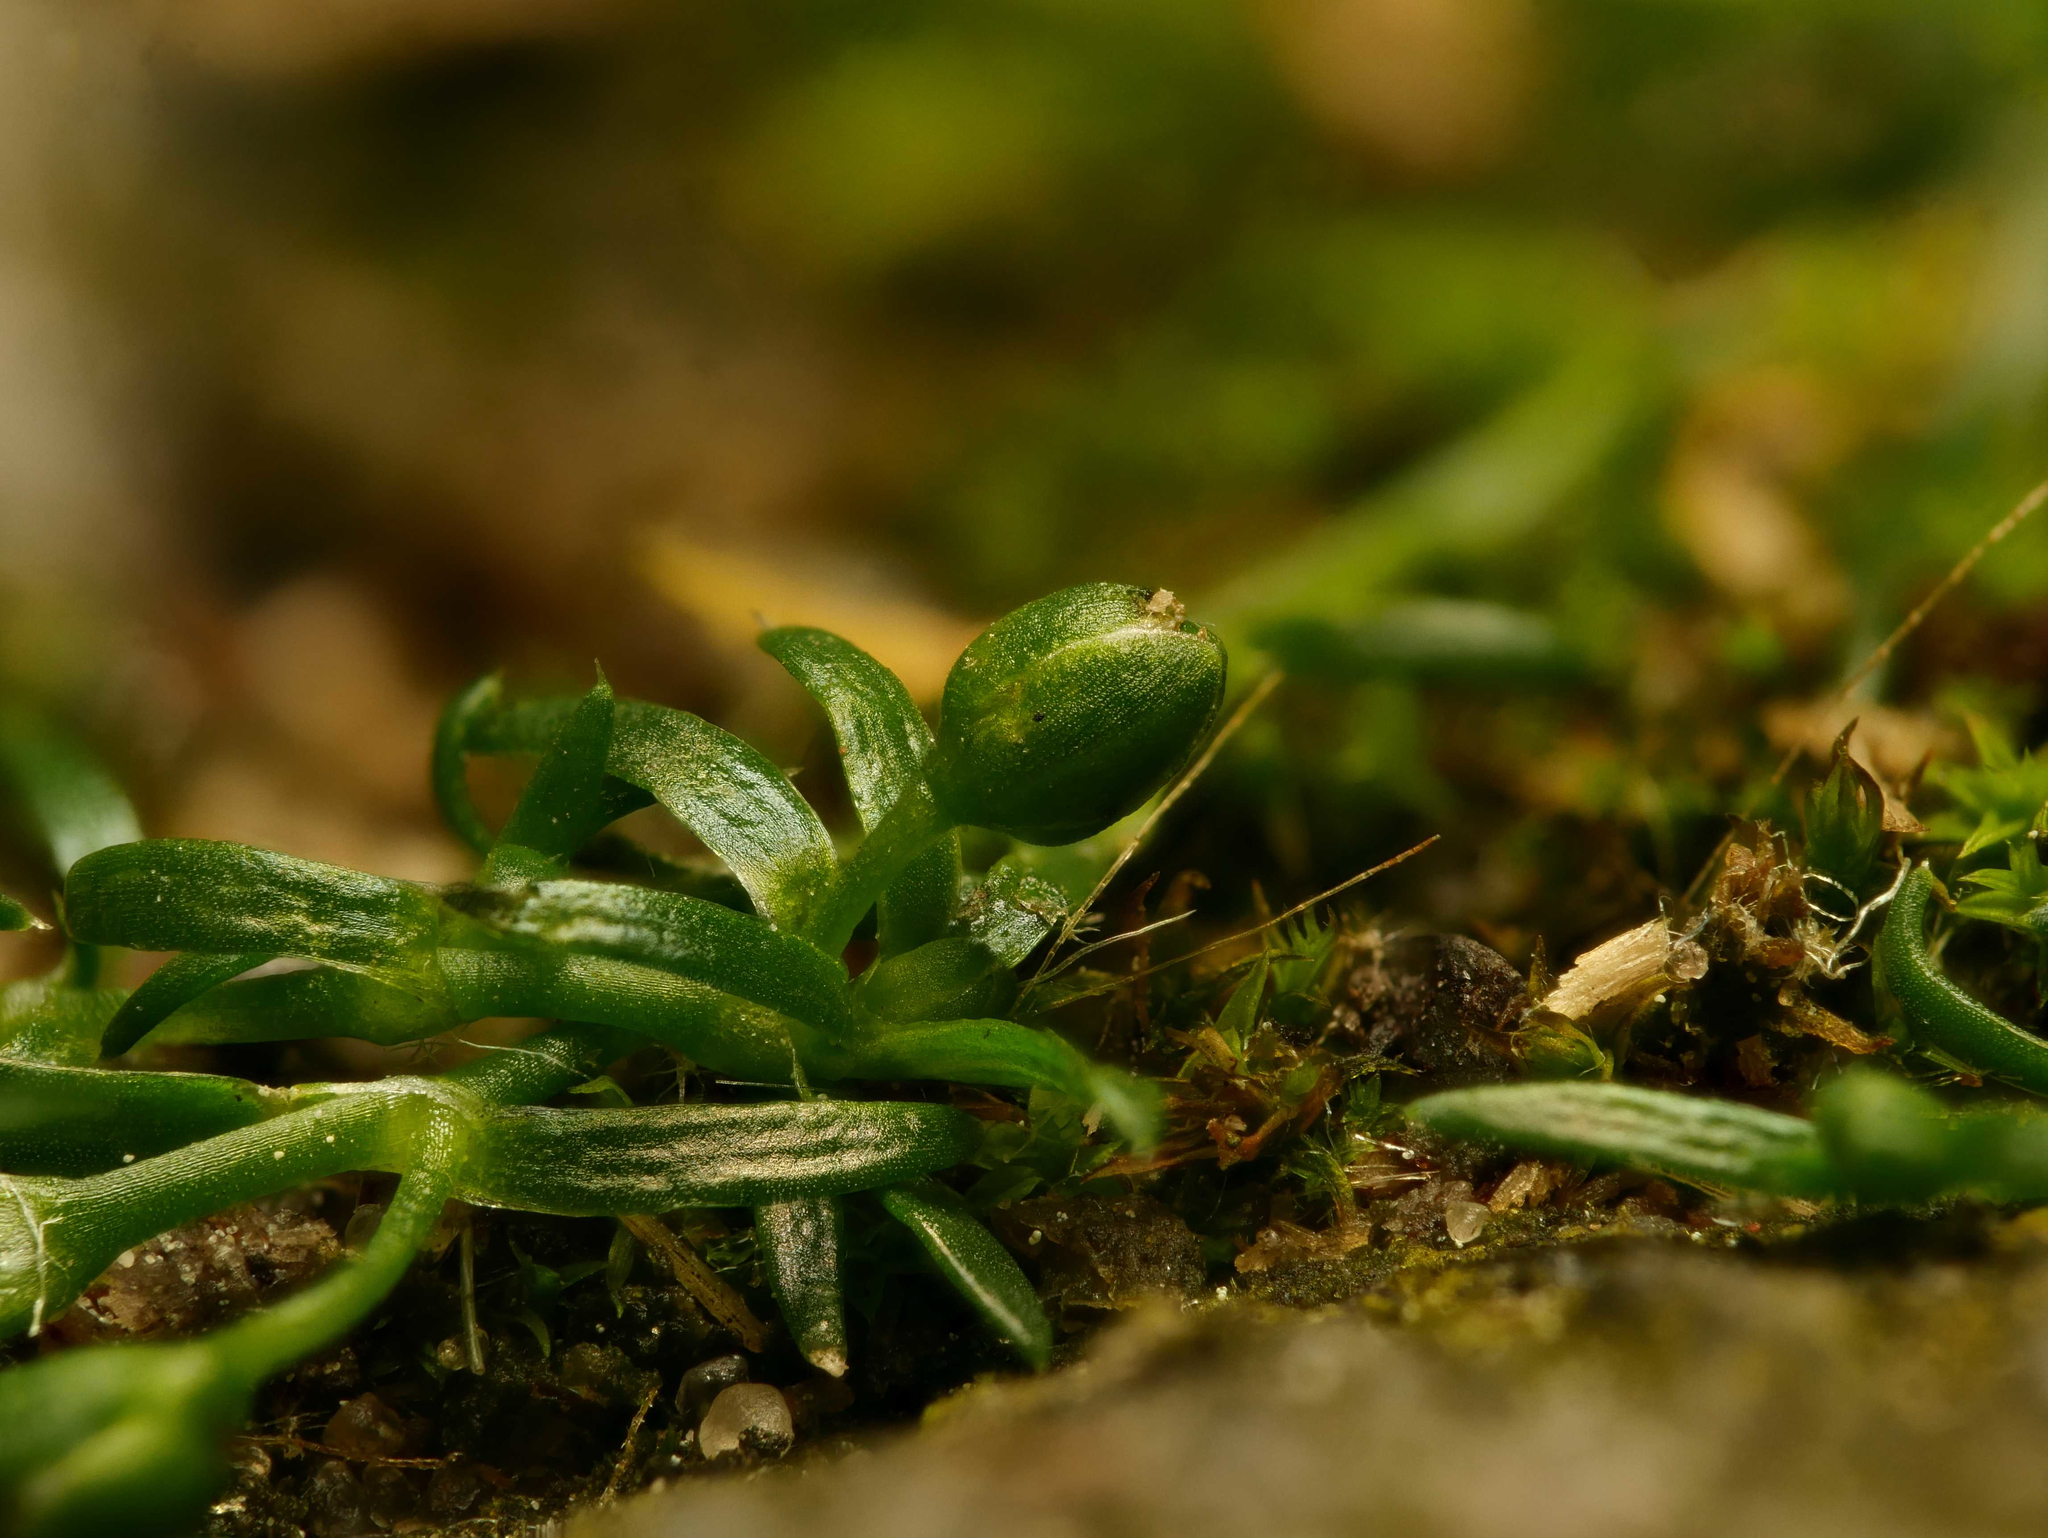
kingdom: Plantae
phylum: Tracheophyta
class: Magnoliopsida
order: Caryophyllales
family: Caryophyllaceae
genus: Sagina
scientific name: Sagina procumbens
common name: Procumbent pearlwort
